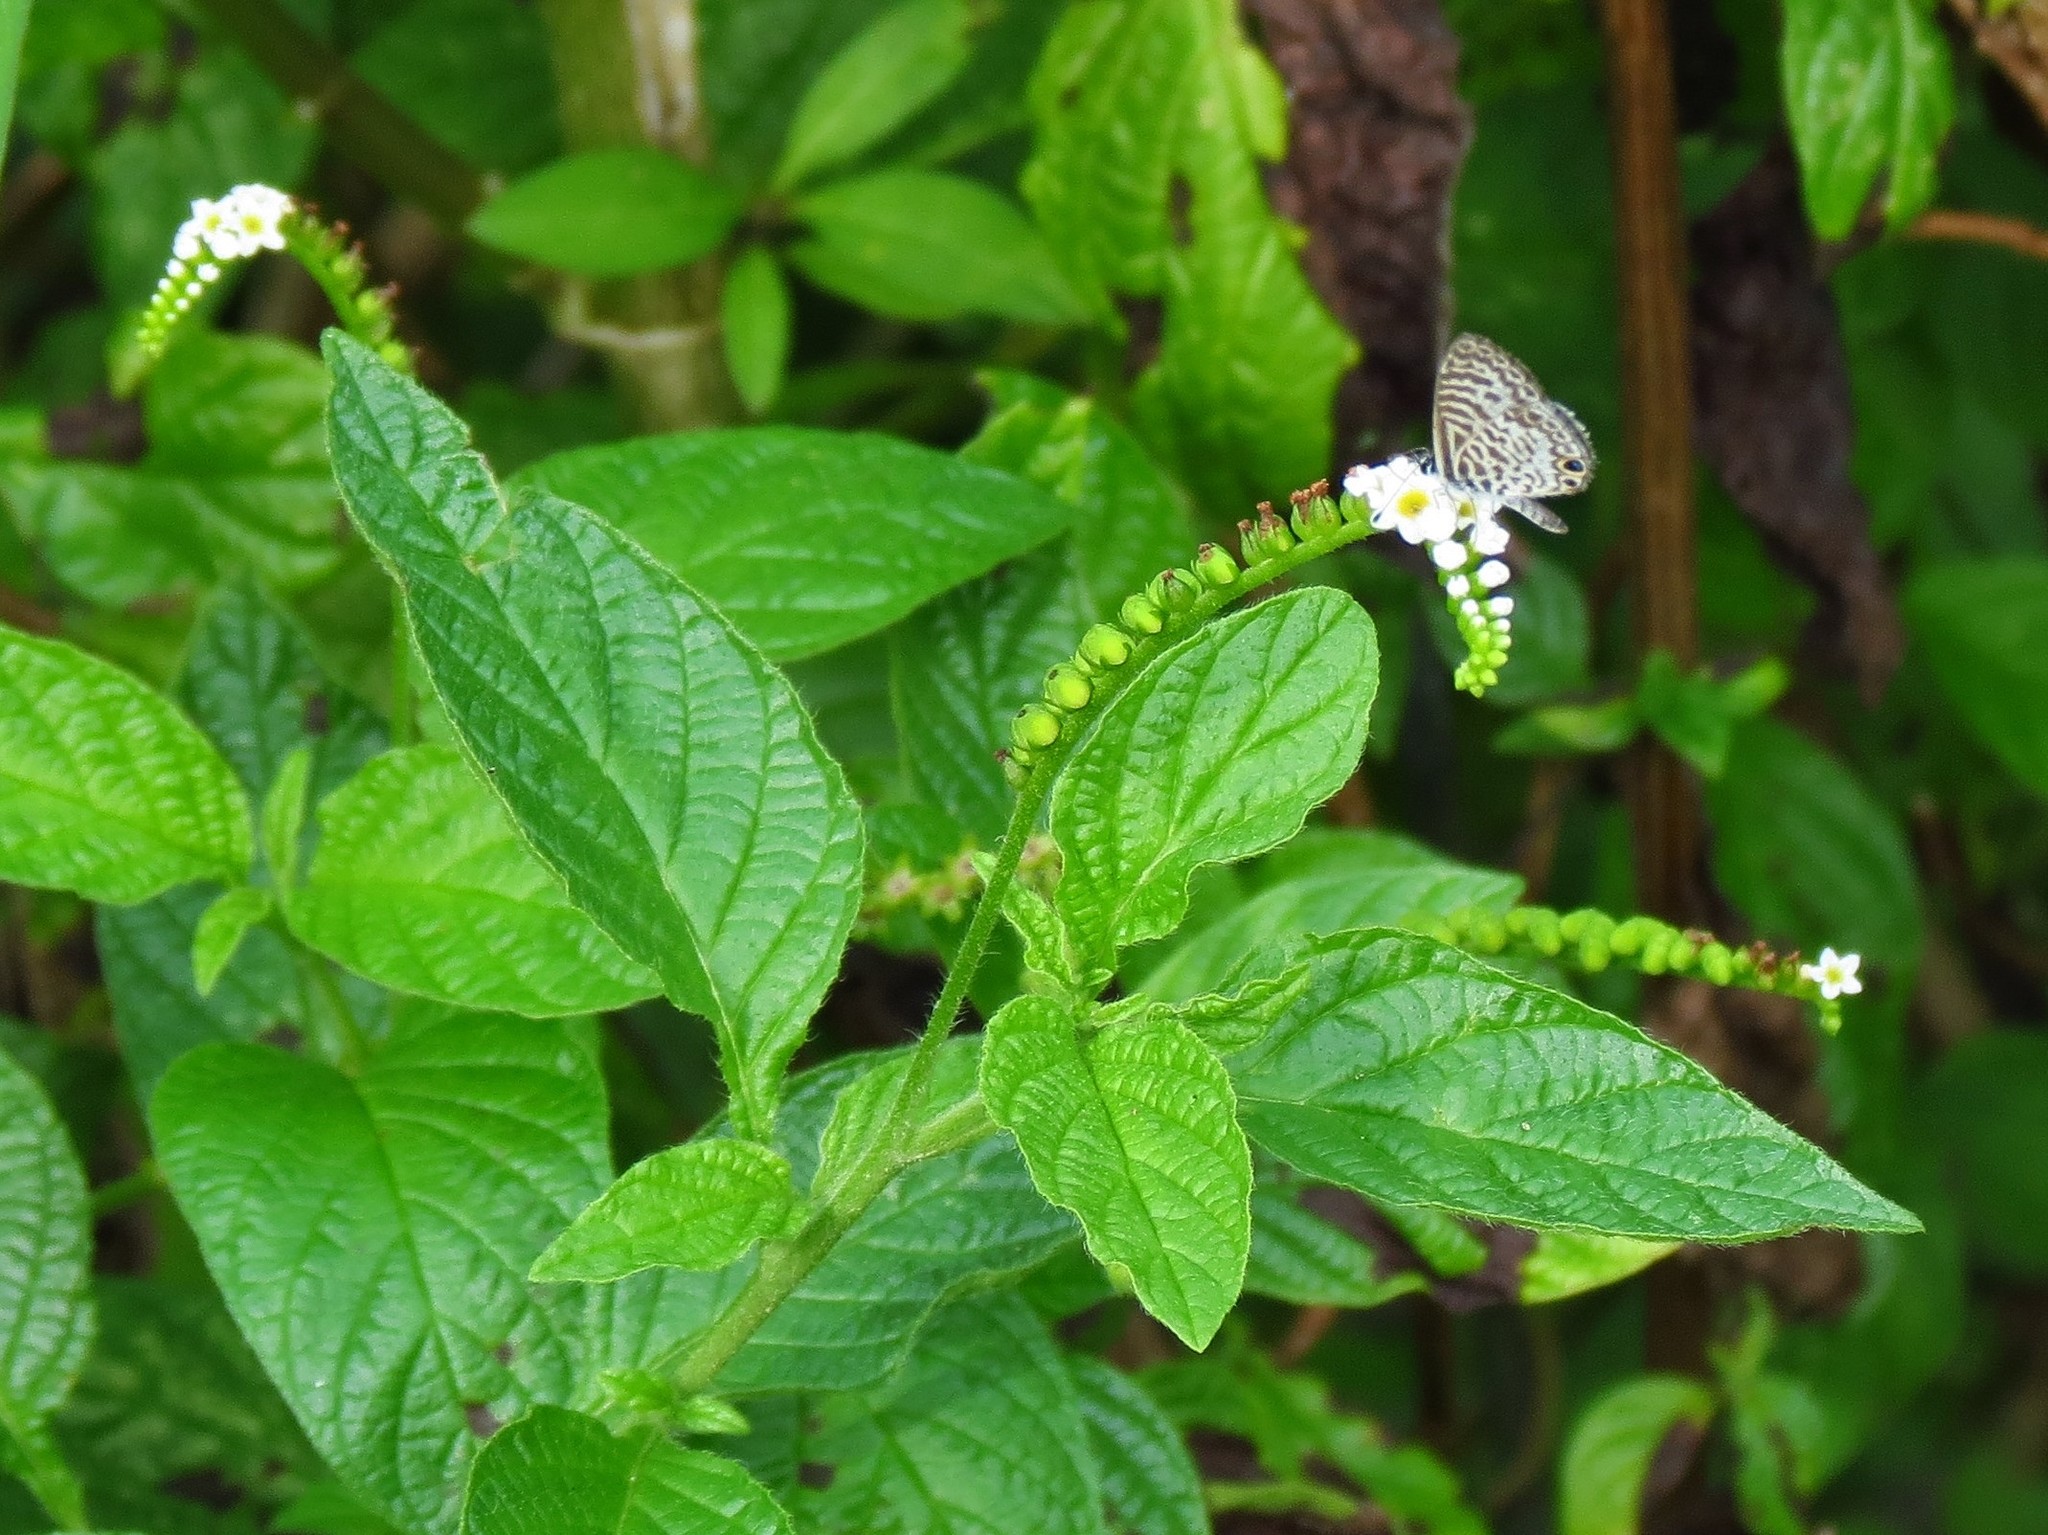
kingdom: Plantae
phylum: Tracheophyta
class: Magnoliopsida
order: Boraginales
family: Heliotropiaceae
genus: Heliotropium
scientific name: Heliotropium angiospermum
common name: Eye bright
